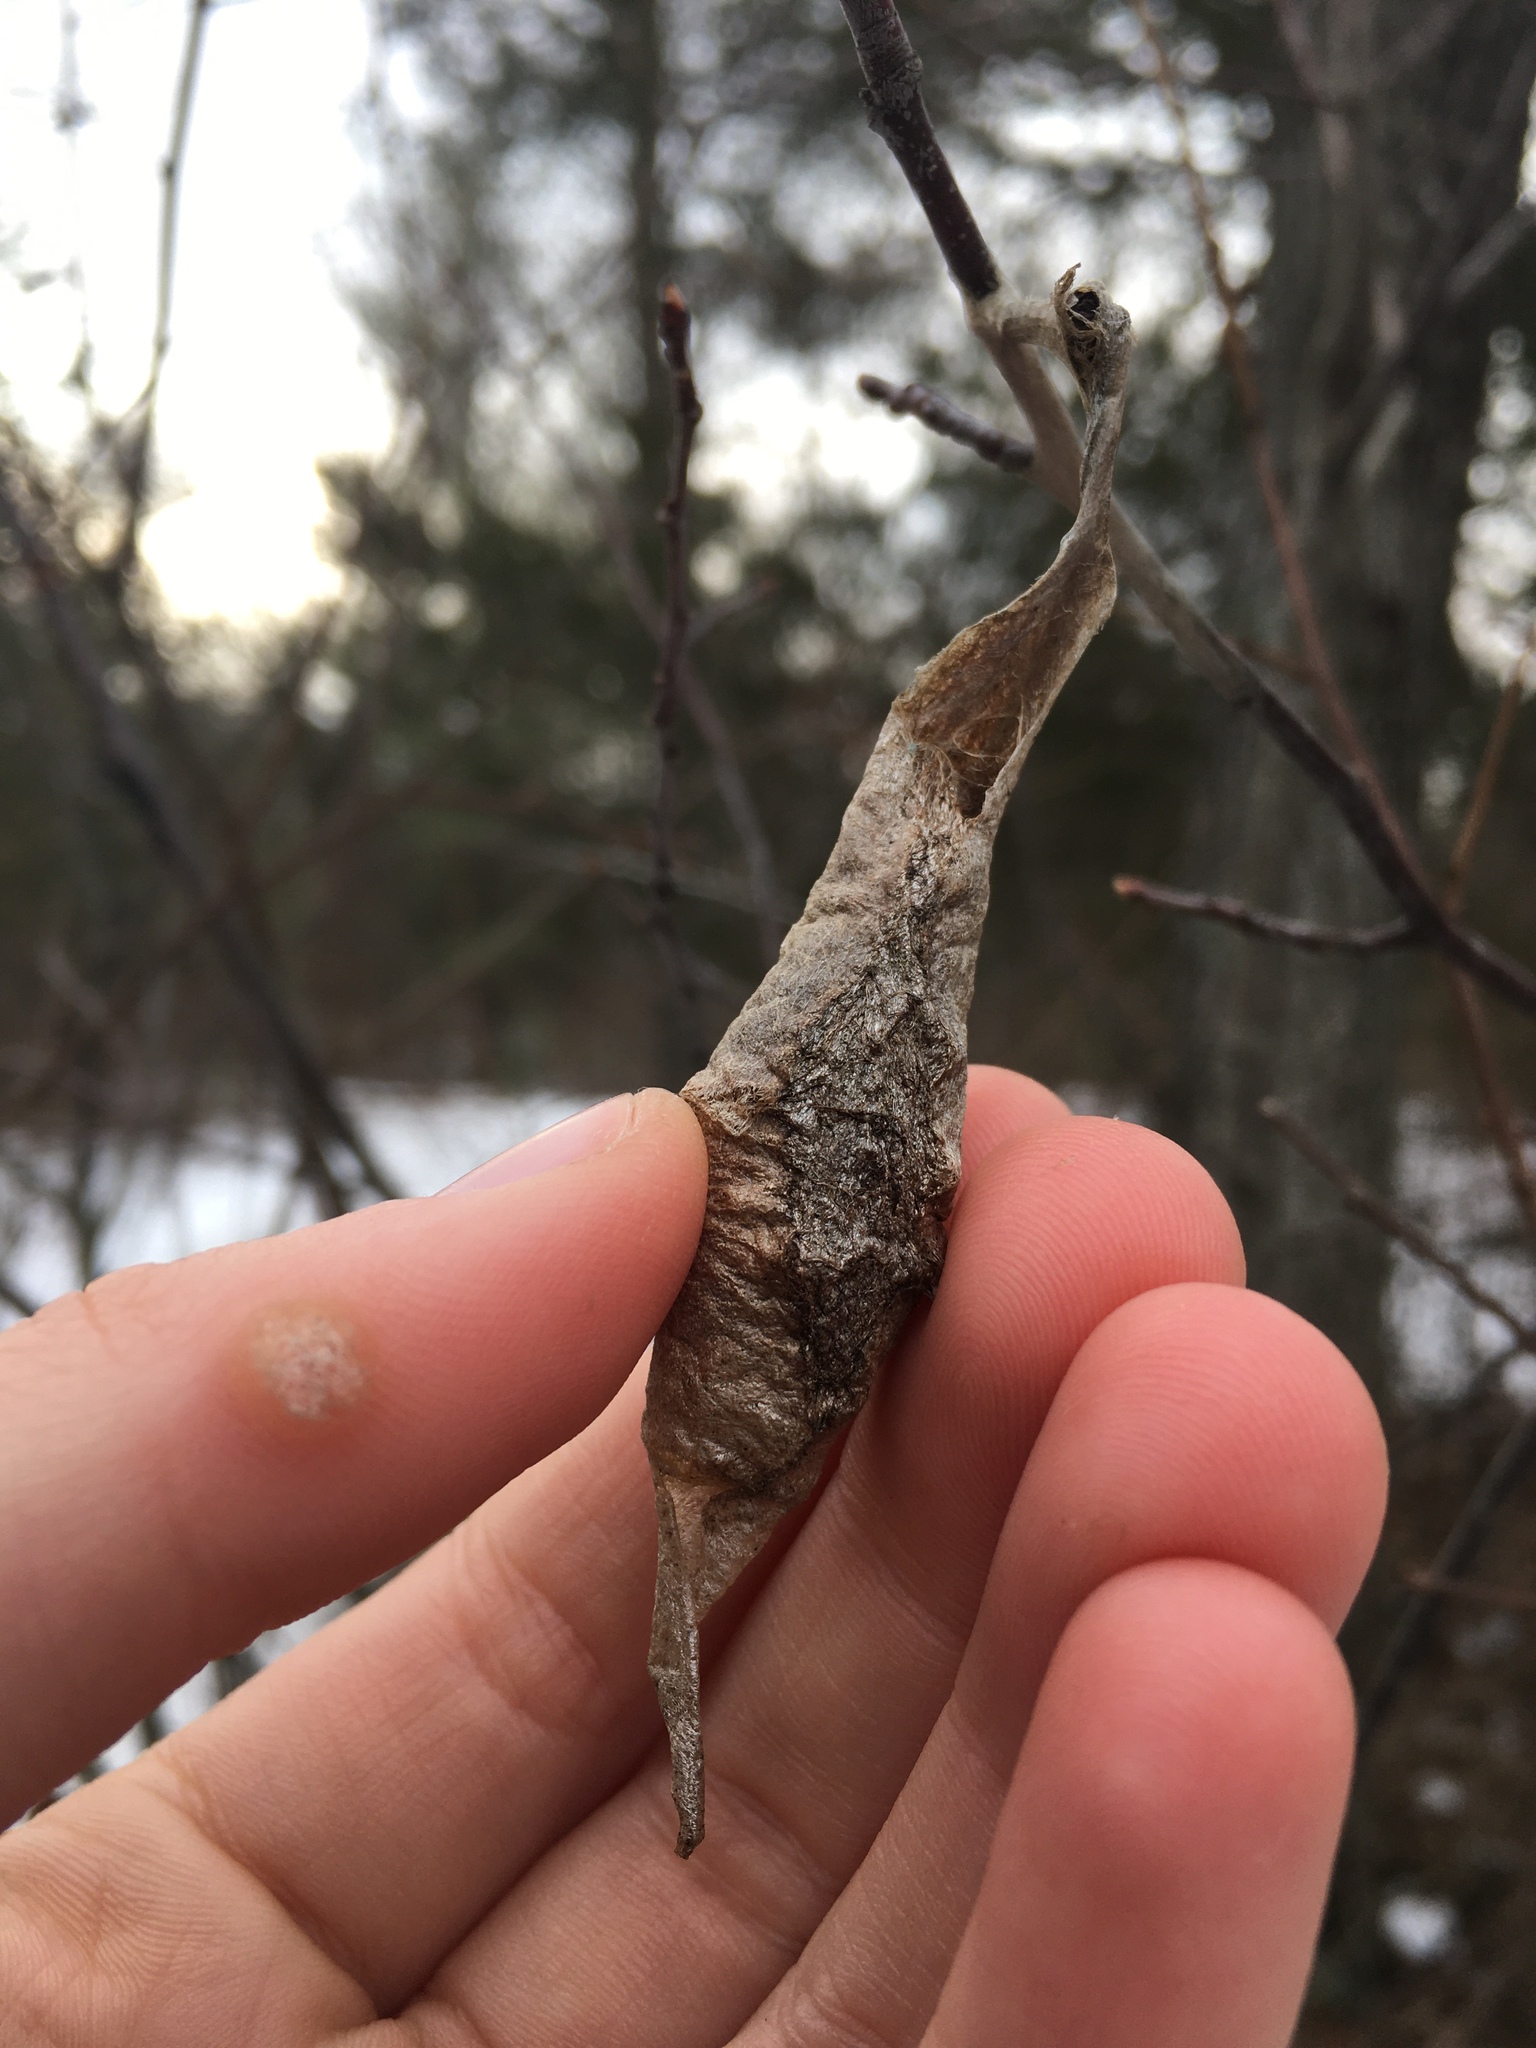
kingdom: Animalia
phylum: Arthropoda
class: Insecta
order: Lepidoptera
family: Saturniidae
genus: Callosamia
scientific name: Callosamia promethea
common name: Promethea silkmoth
